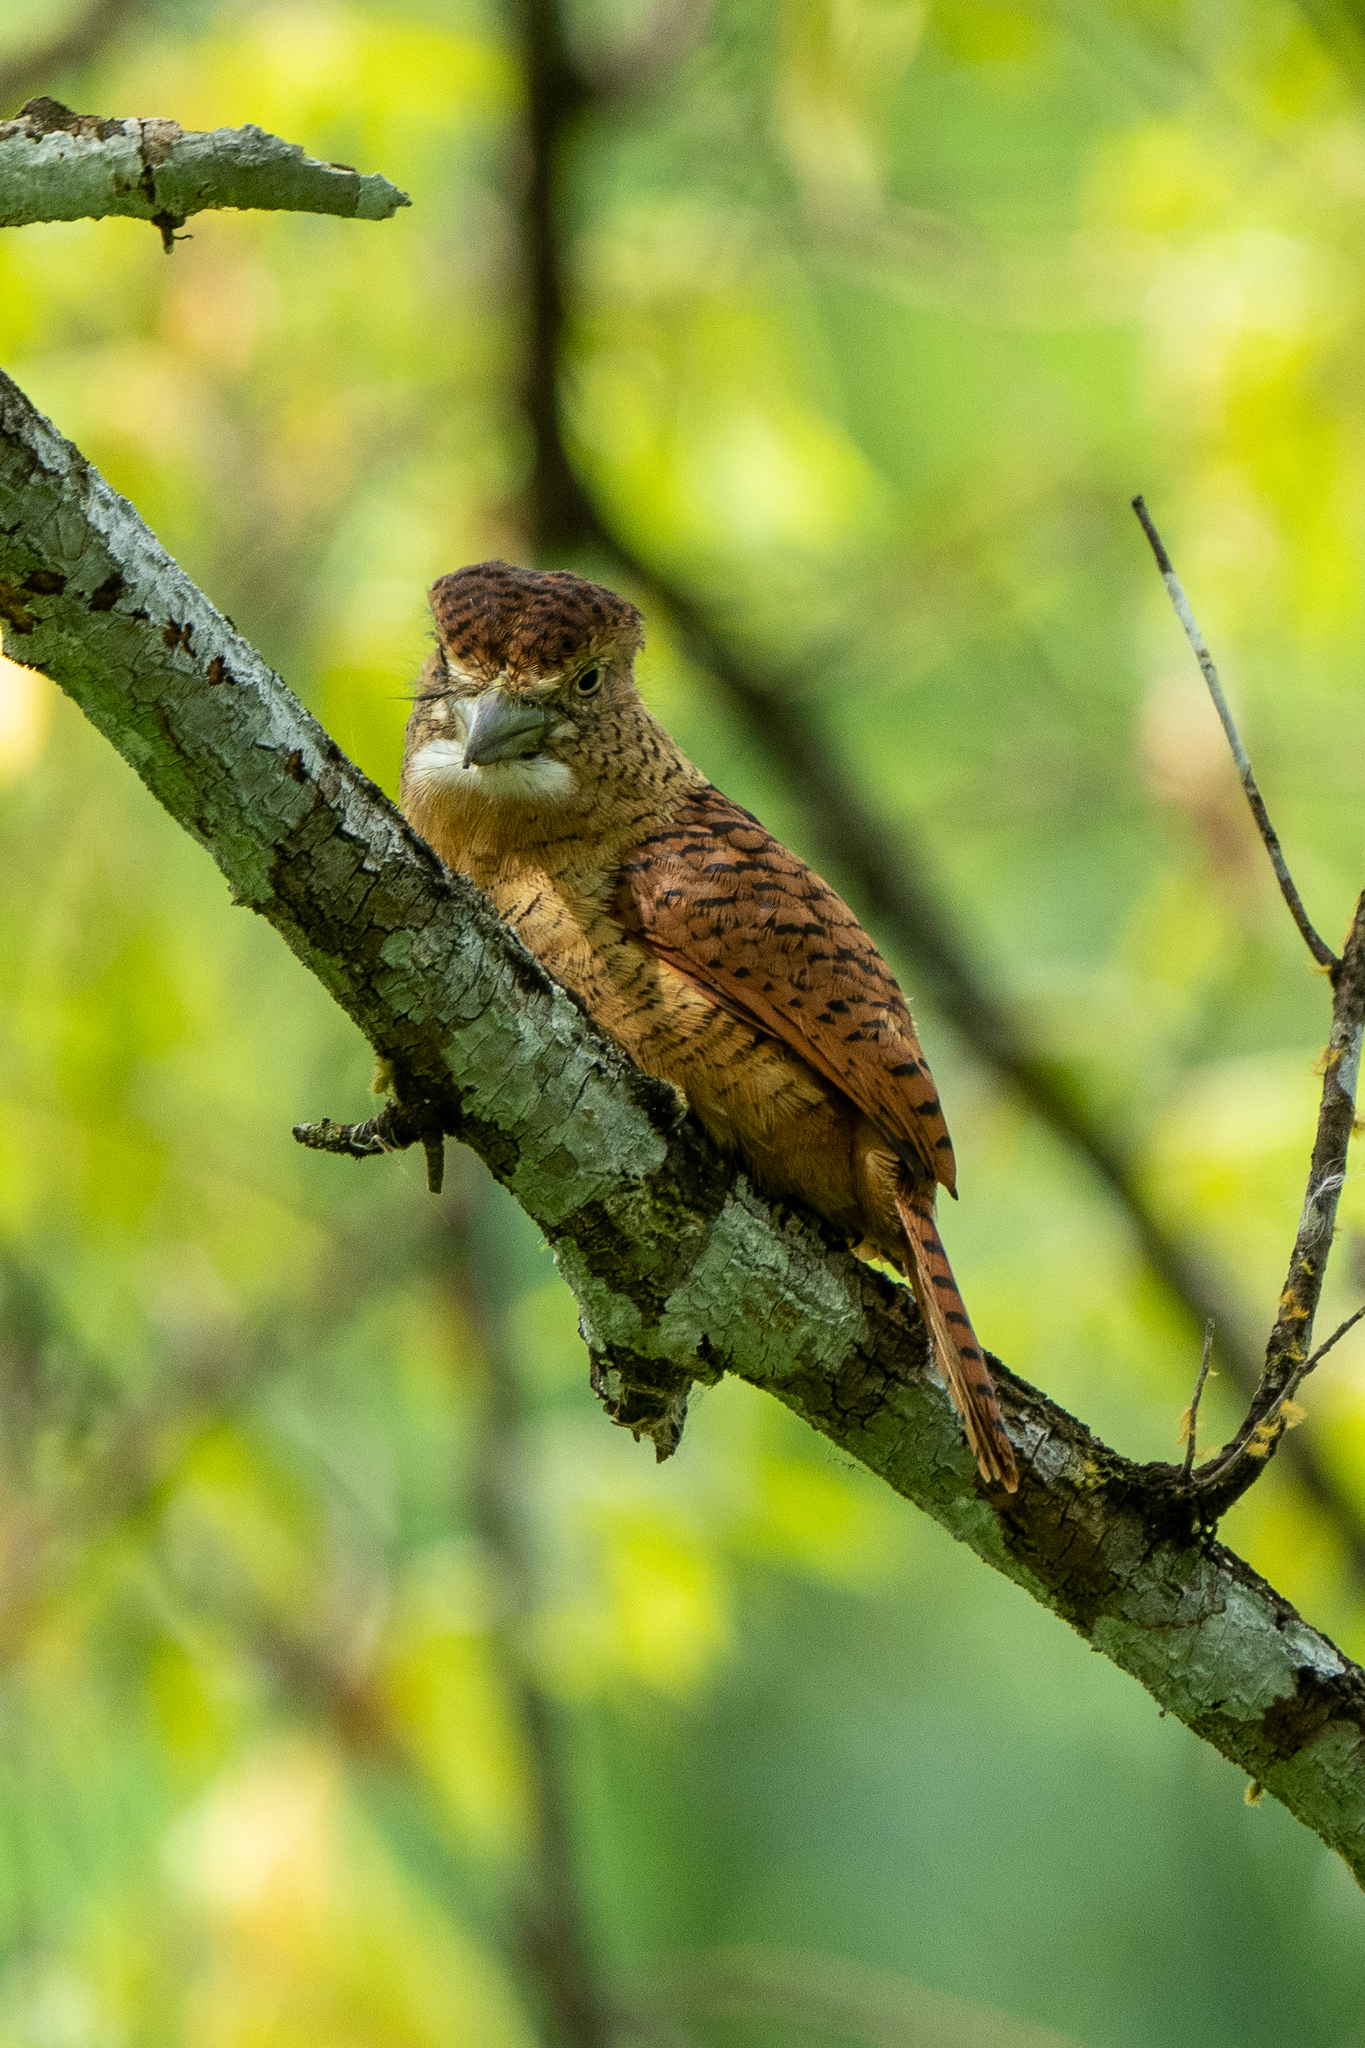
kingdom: Animalia
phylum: Chordata
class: Aves
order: Piciformes
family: Bucconidae
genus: Nystalus
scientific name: Nystalus radiatus
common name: Barred puffbird
